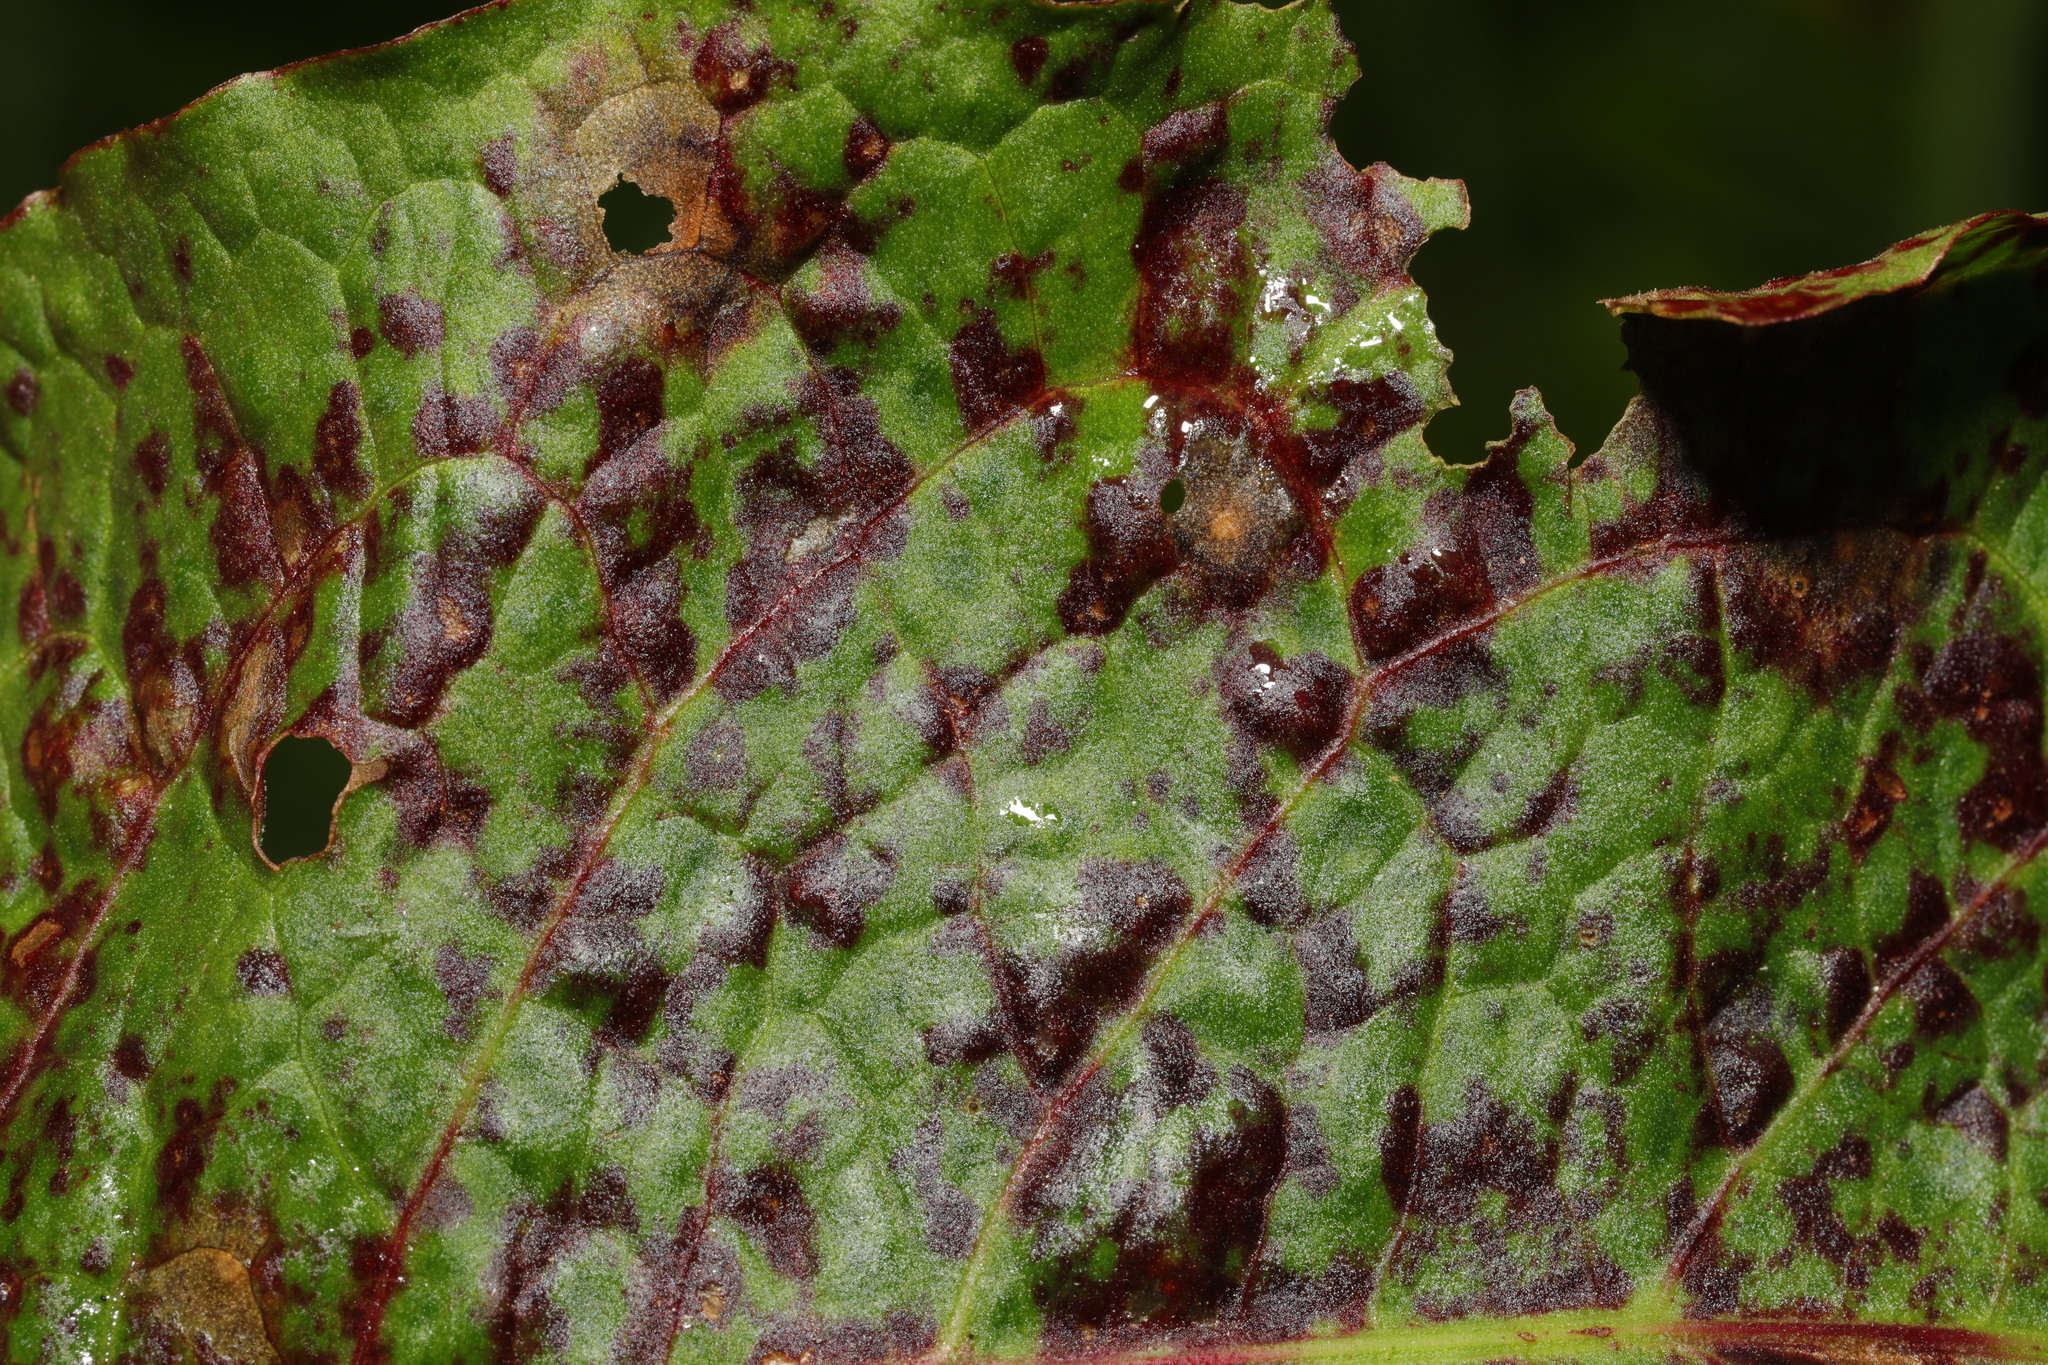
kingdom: Fungi
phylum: Ascomycota
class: Dothideomycetes
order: Mycosphaerellales
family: Mycosphaerellaceae
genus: Ramularia
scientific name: Ramularia rubella
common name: Red dock spot
